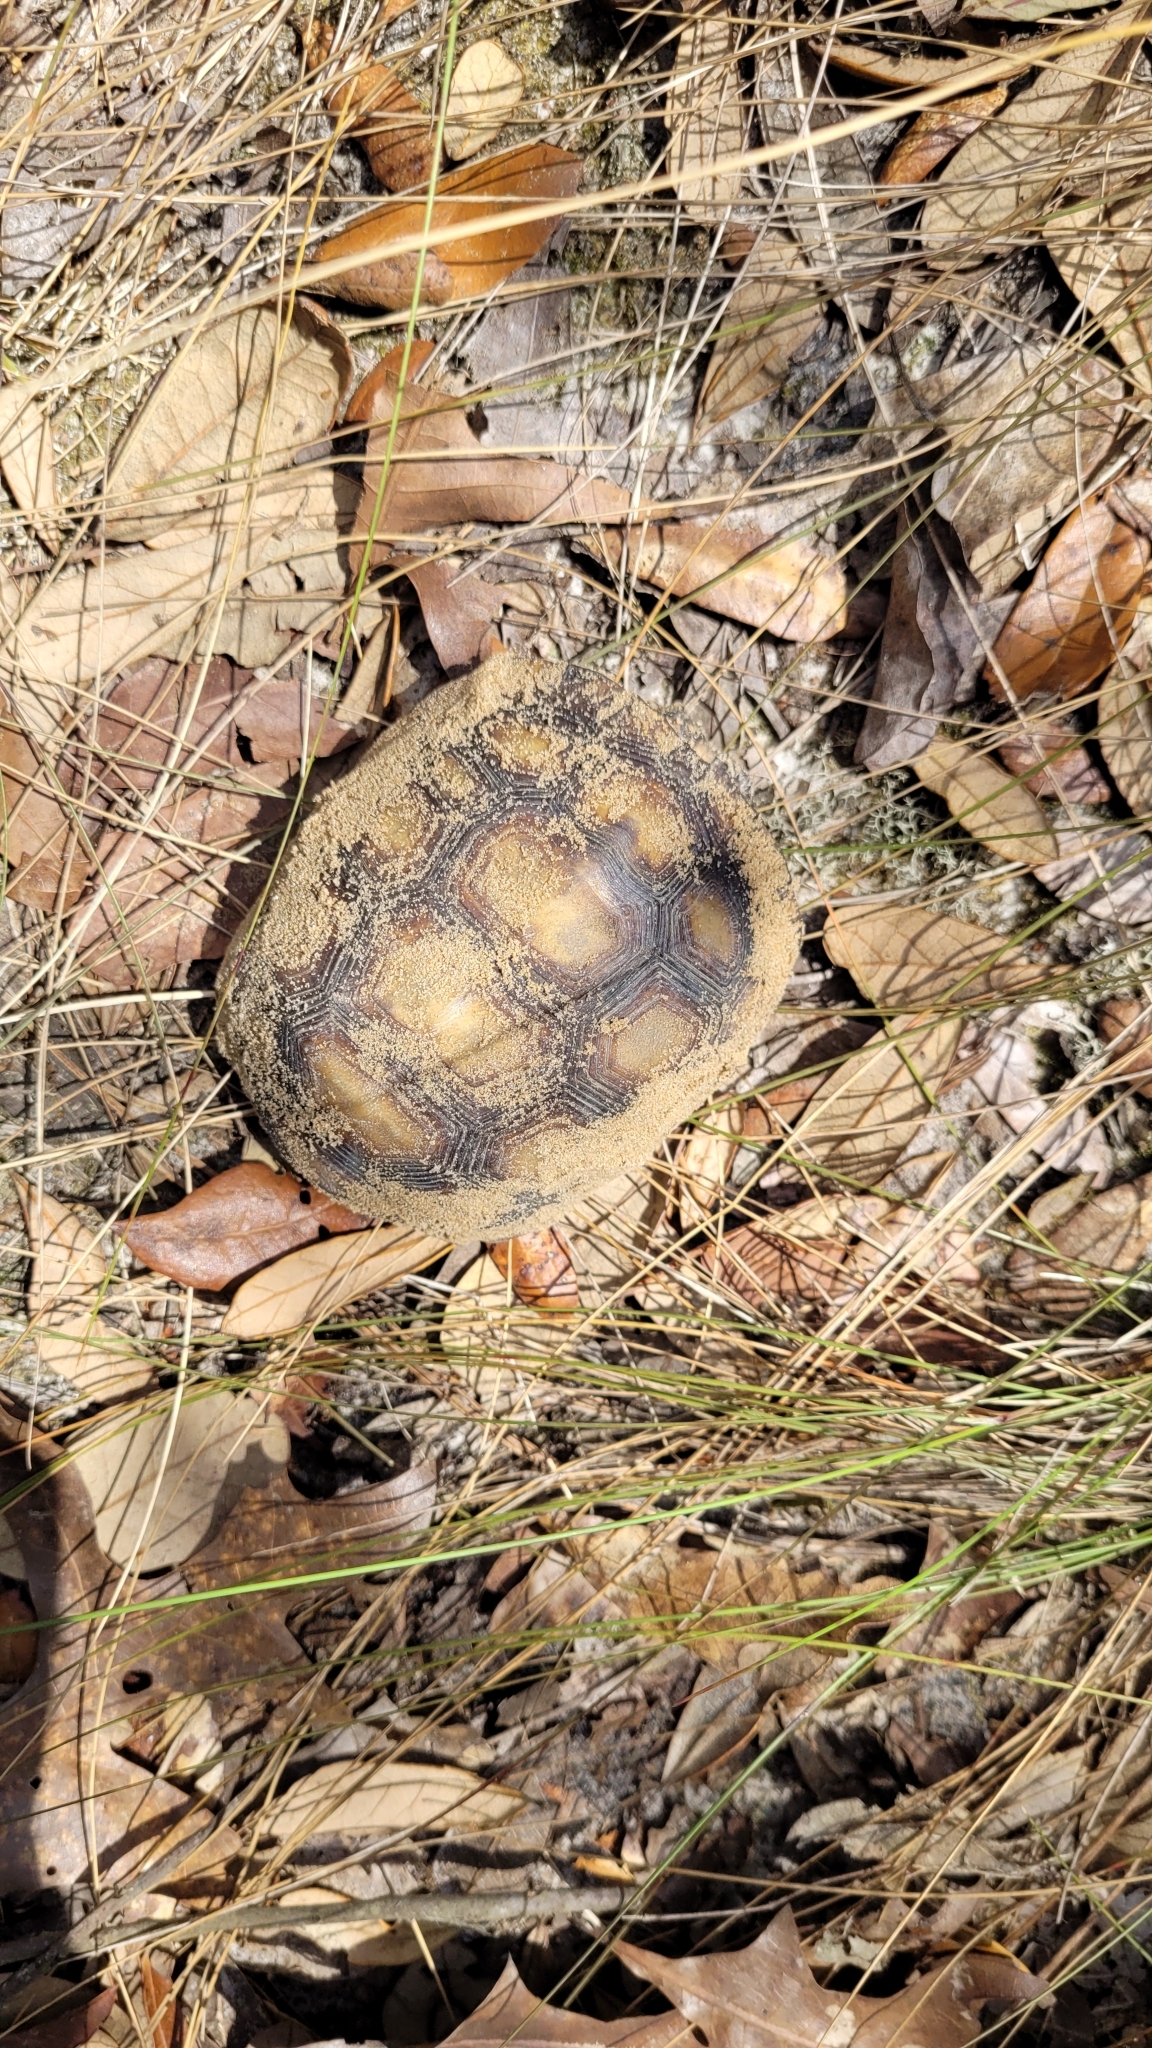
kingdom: Animalia
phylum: Chordata
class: Testudines
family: Testudinidae
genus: Gopherus
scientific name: Gopherus polyphemus
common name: Florida gopher tortoise
